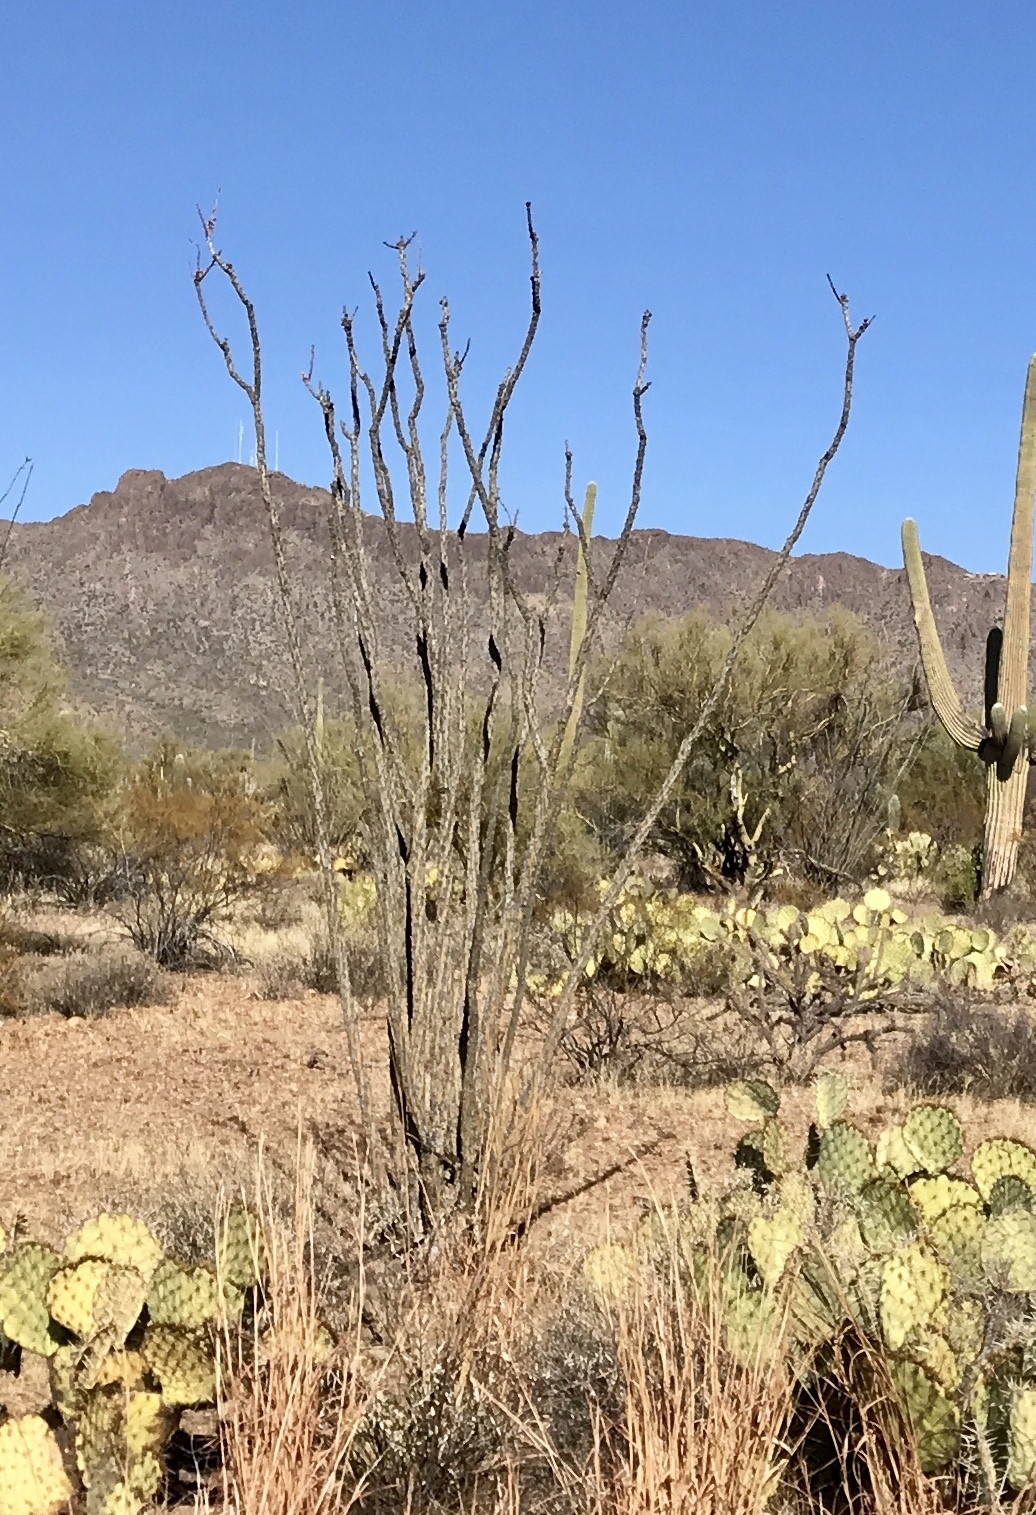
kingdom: Plantae
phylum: Tracheophyta
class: Magnoliopsida
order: Ericales
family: Fouquieriaceae
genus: Fouquieria
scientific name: Fouquieria splendens
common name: Vine-cactus
